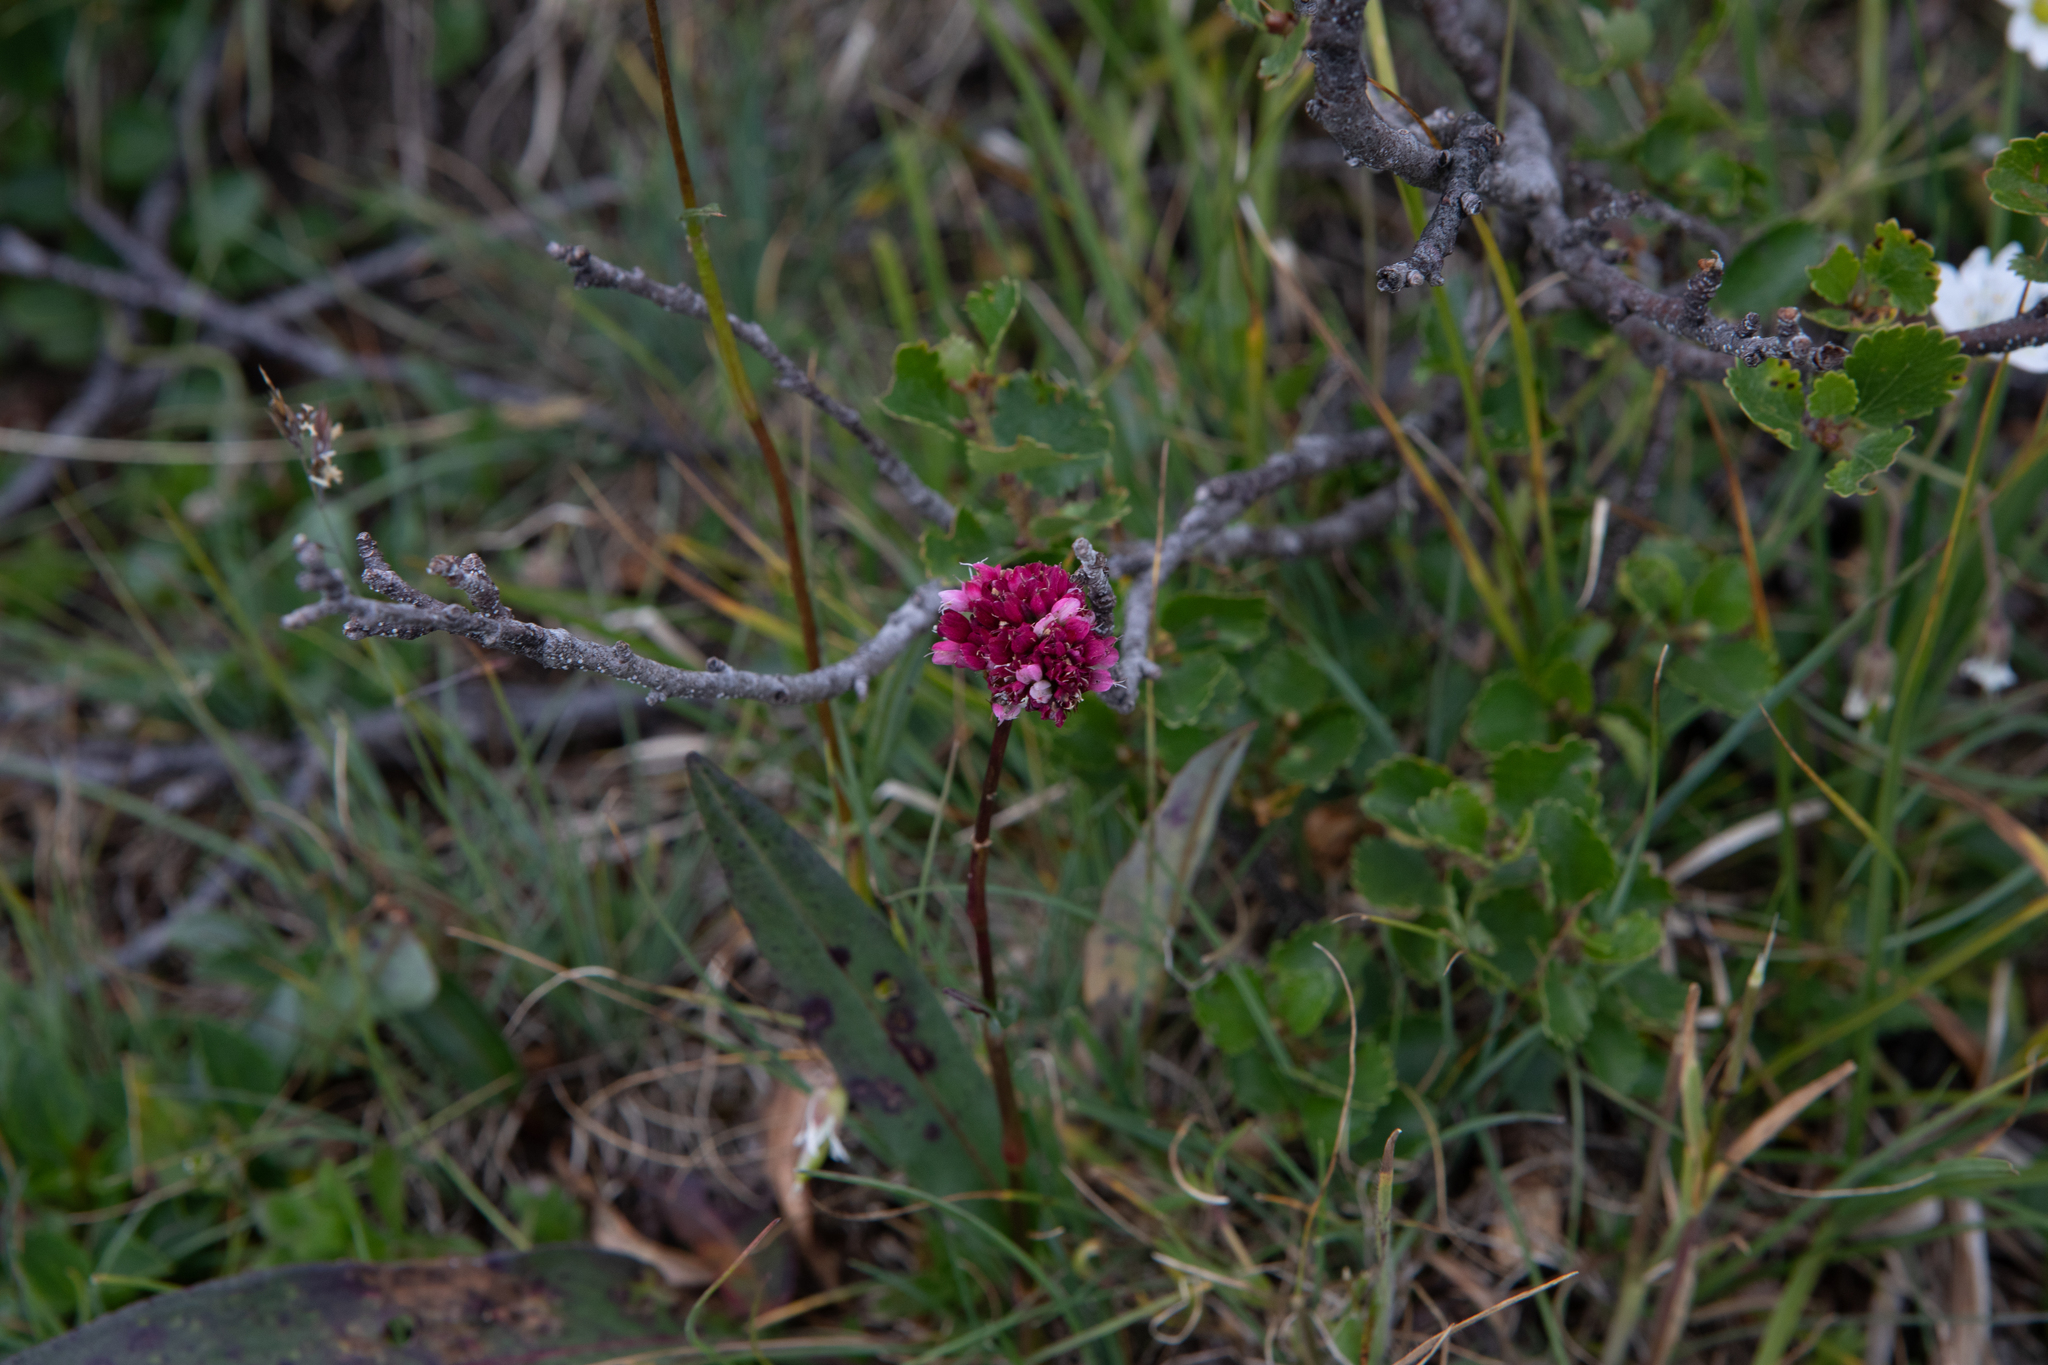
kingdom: Plantae
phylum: Tracheophyta
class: Magnoliopsida
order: Caryophyllales
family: Polygonaceae
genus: Bistorta
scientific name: Bistorta elliptica
